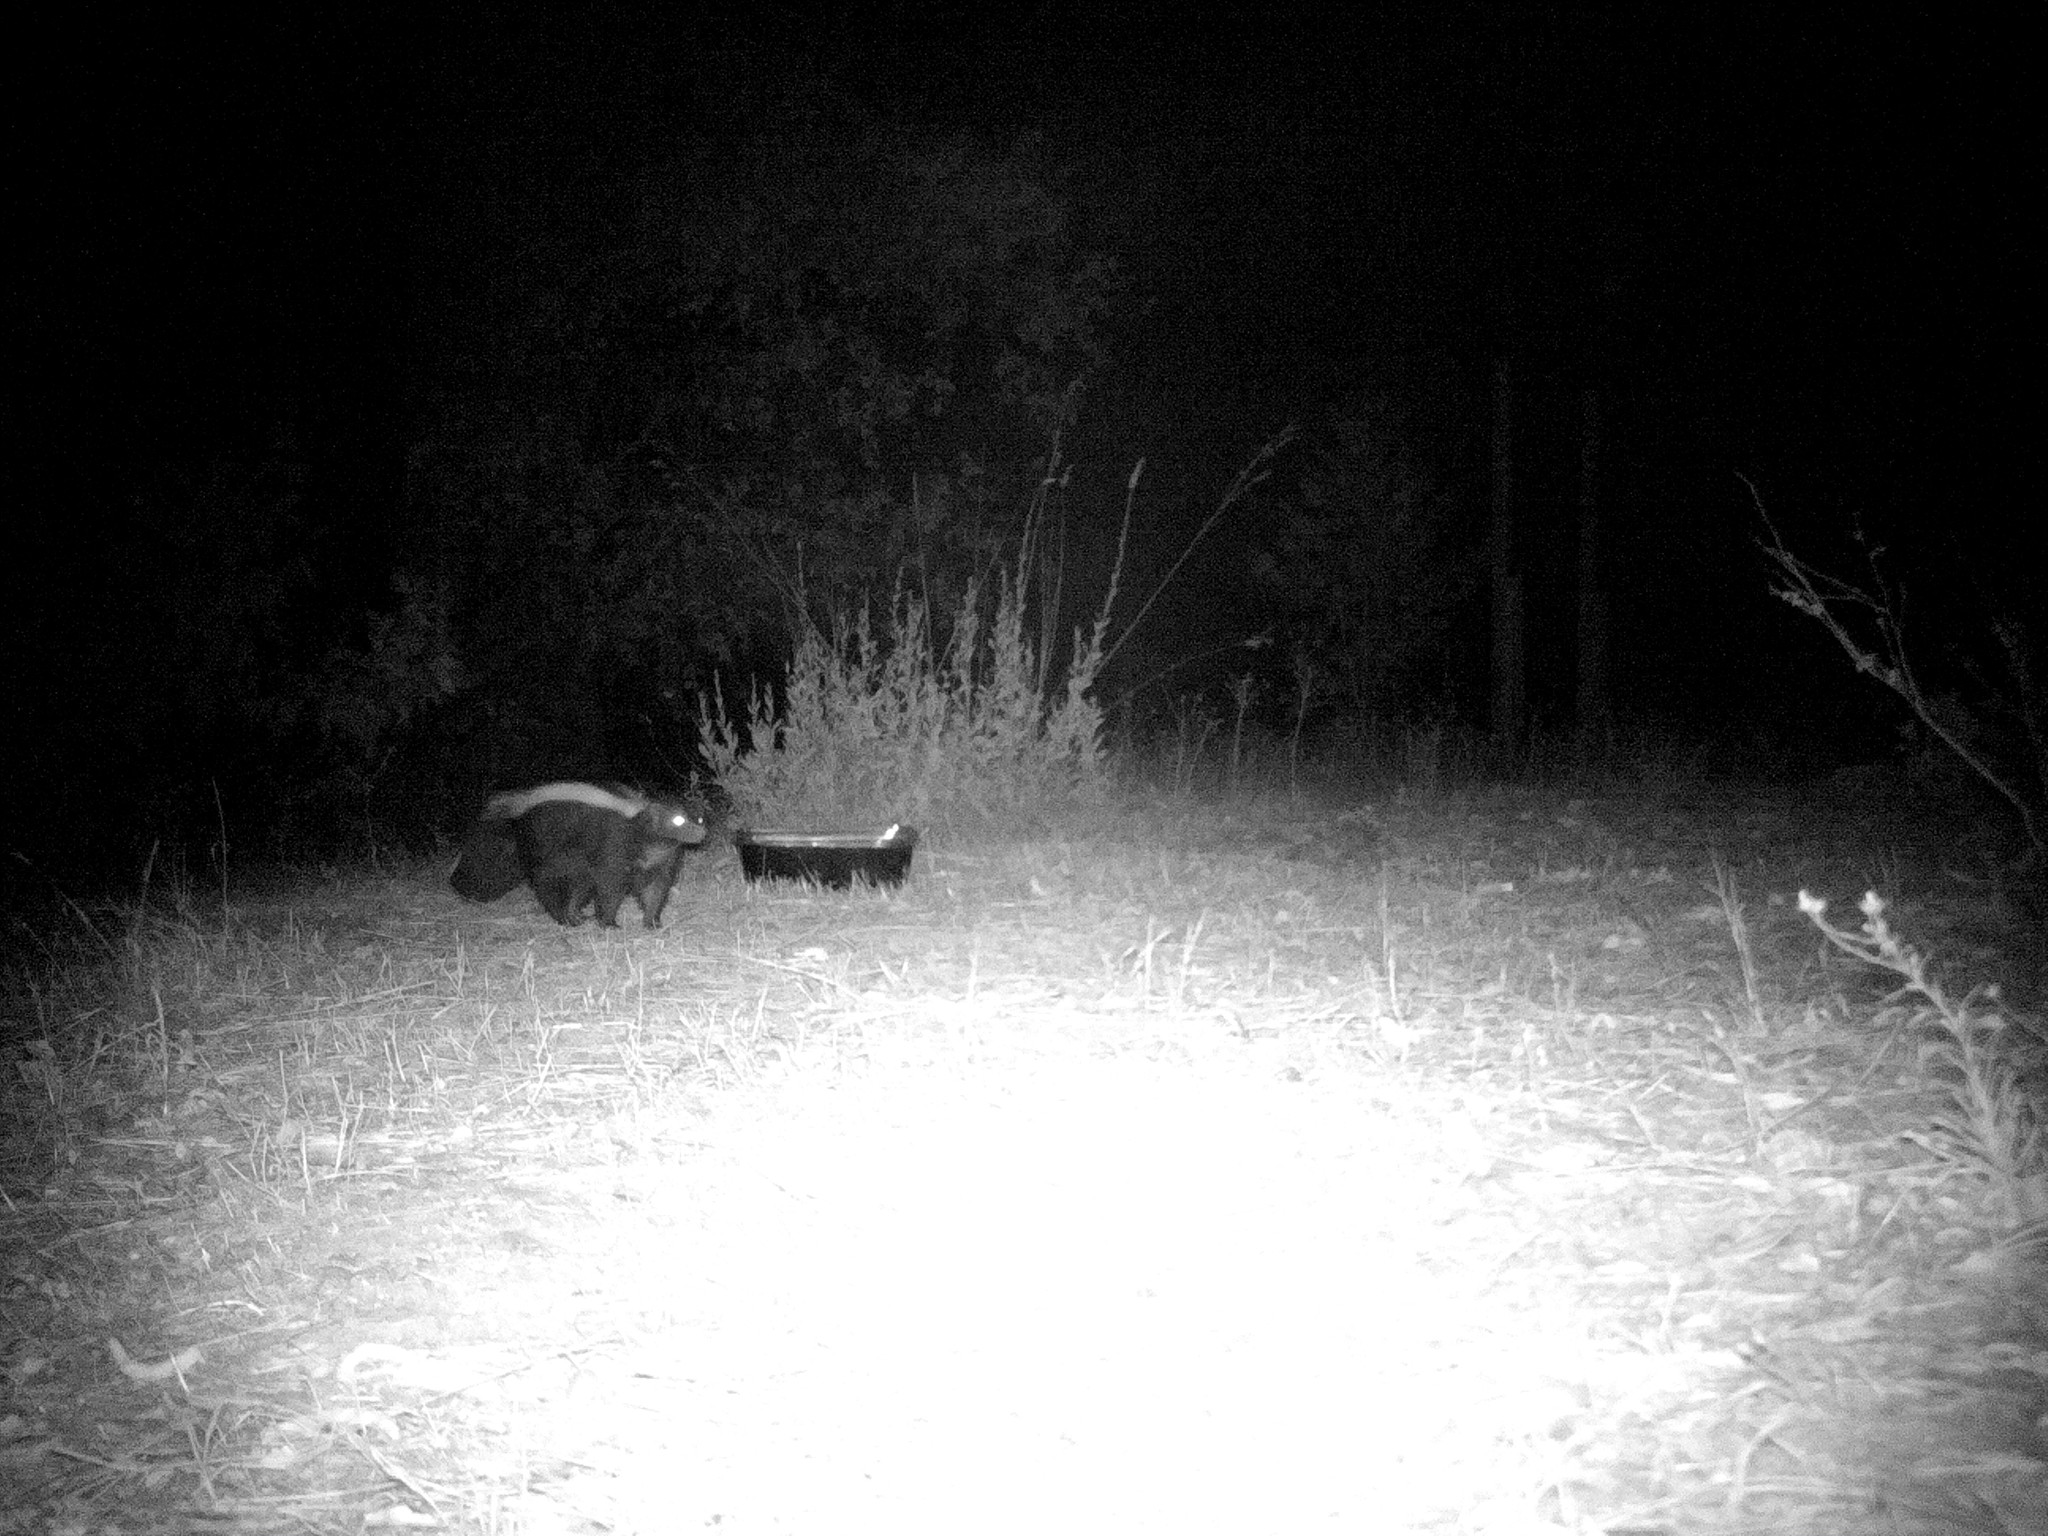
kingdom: Animalia
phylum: Chordata
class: Mammalia
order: Carnivora
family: Mephitidae
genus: Mephitis
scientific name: Mephitis mephitis
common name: Striped skunk
